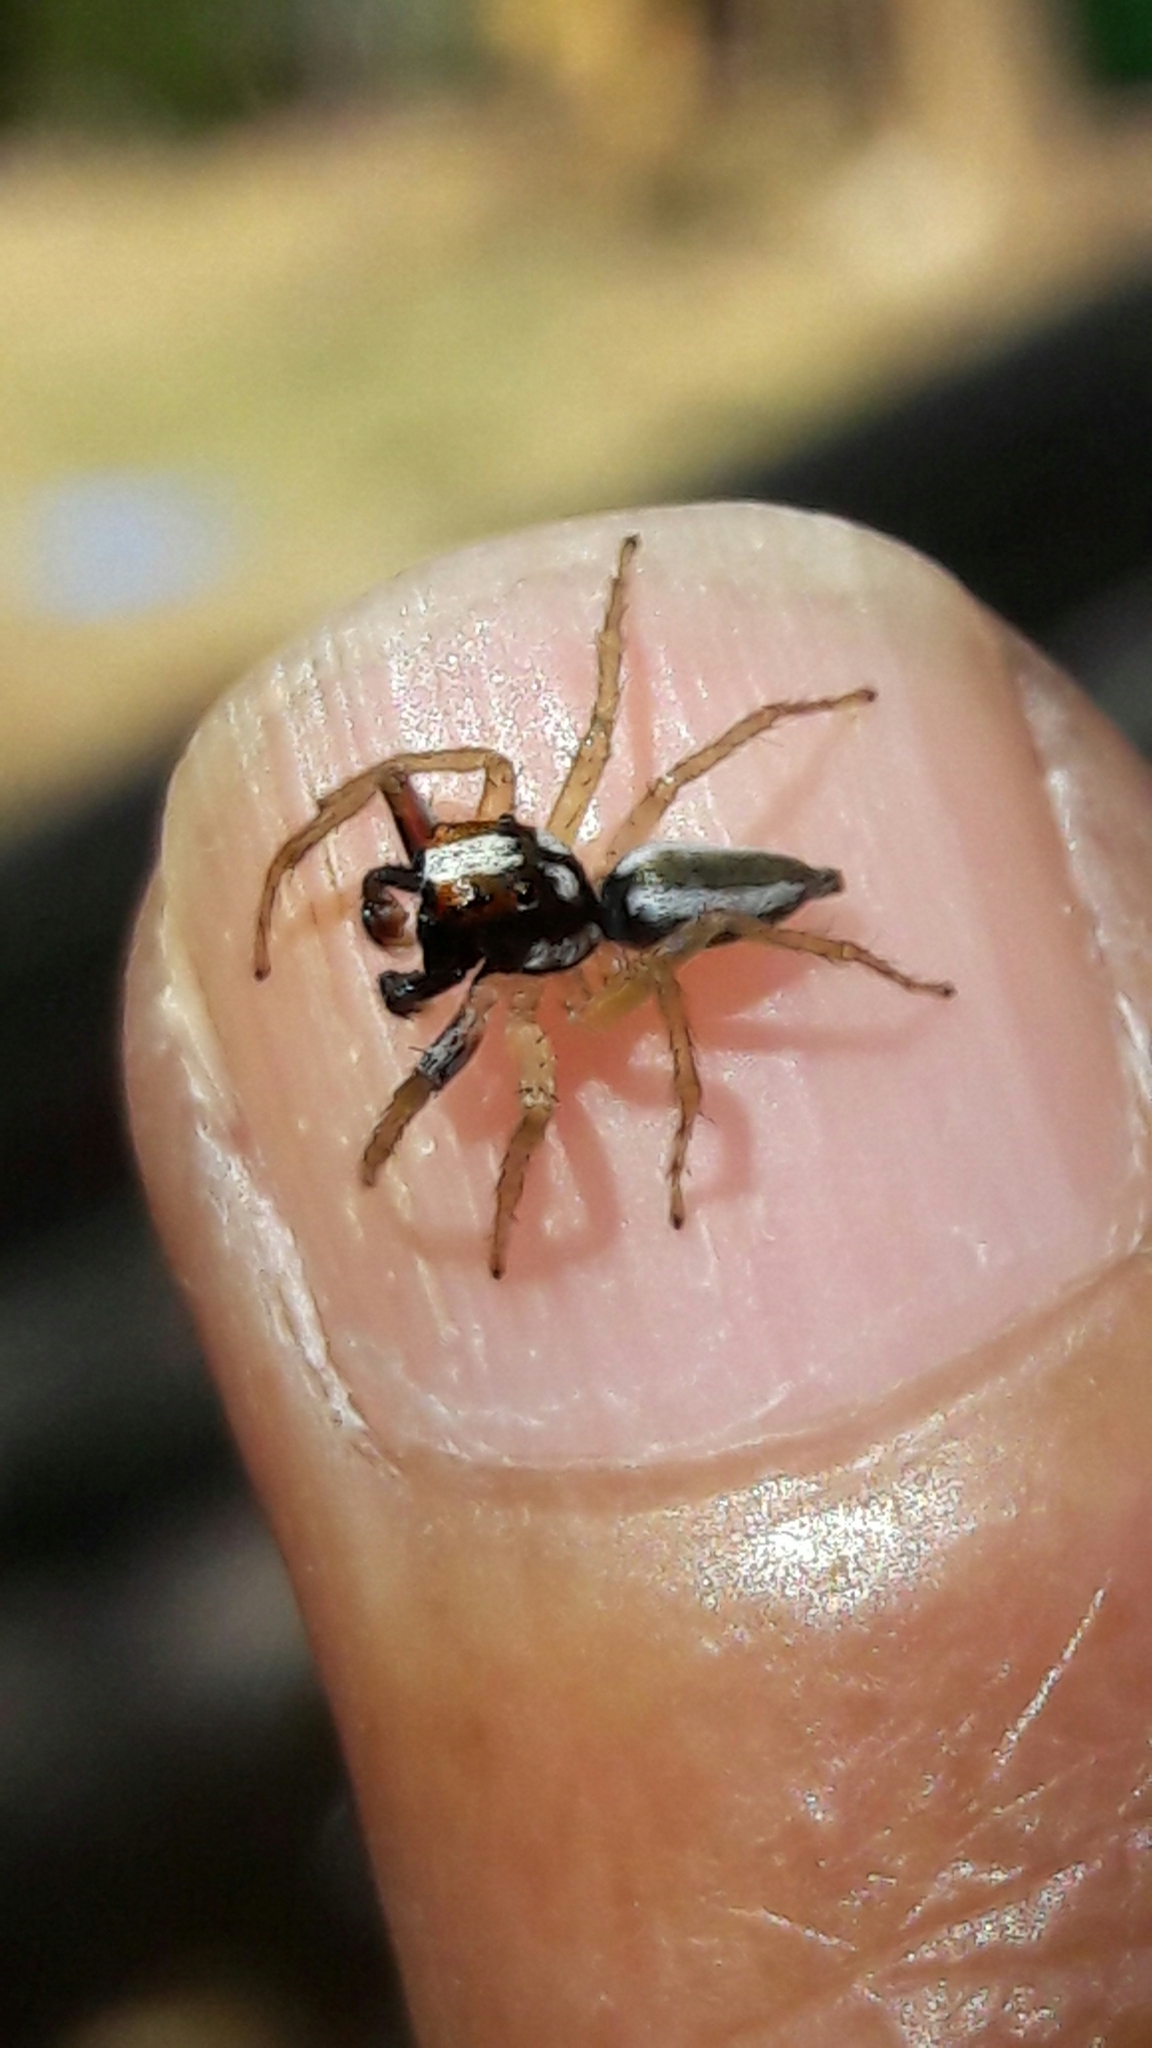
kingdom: Animalia
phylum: Arthropoda
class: Arachnida
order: Araneae
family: Salticidae
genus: Chira
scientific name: Chira spinosa
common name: Jumping spiders
